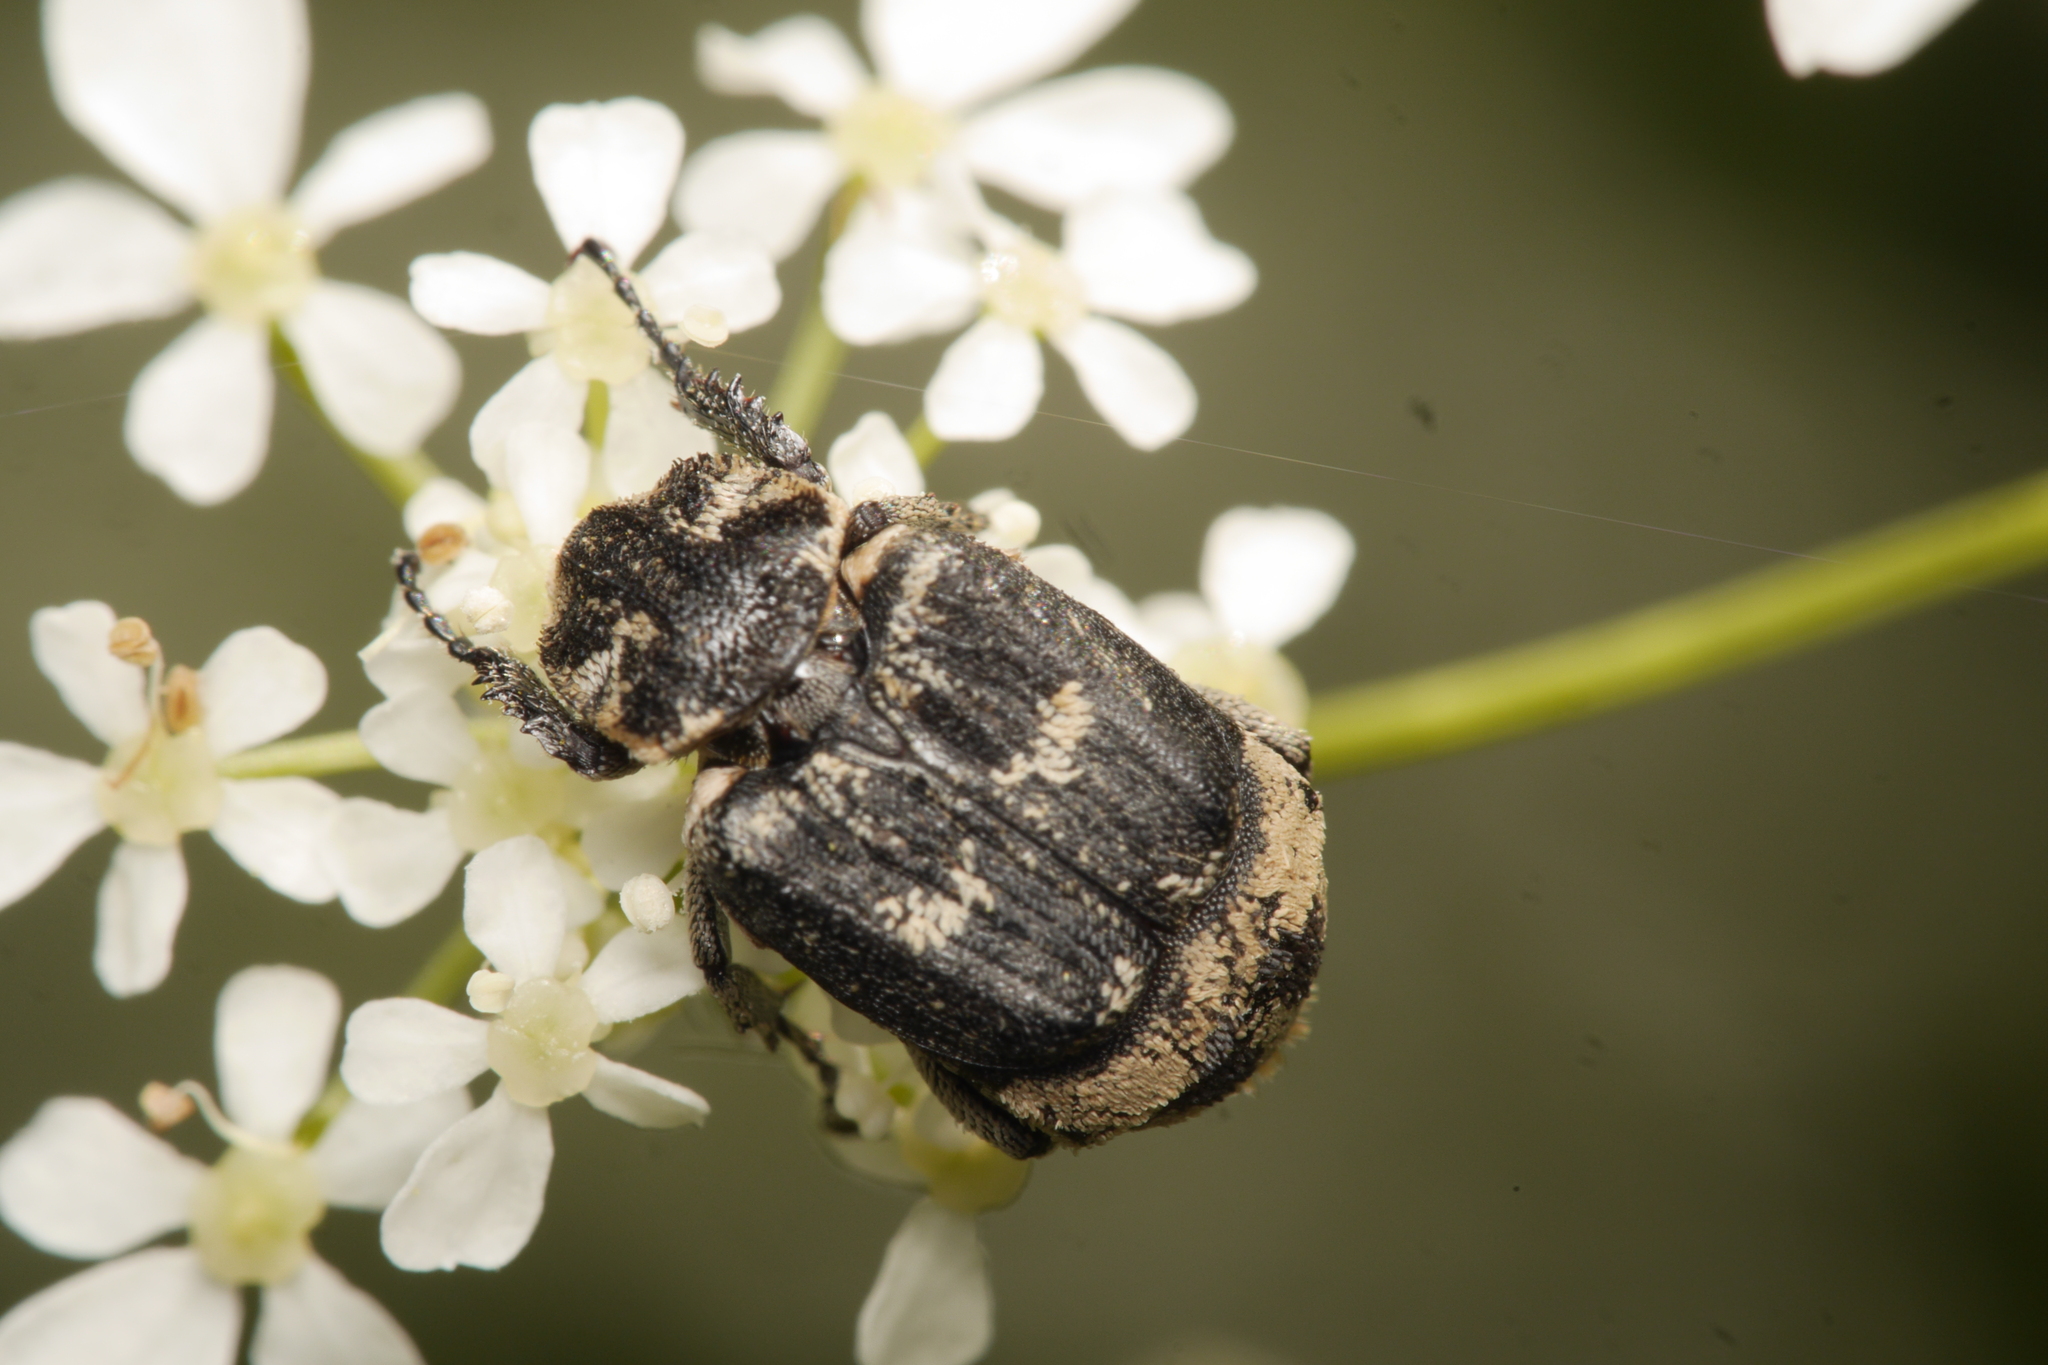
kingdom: Animalia
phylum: Arthropoda
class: Insecta
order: Coleoptera
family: Scarabaeidae
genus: Valgus
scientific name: Valgus hemipterus
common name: Bug flower chafer
